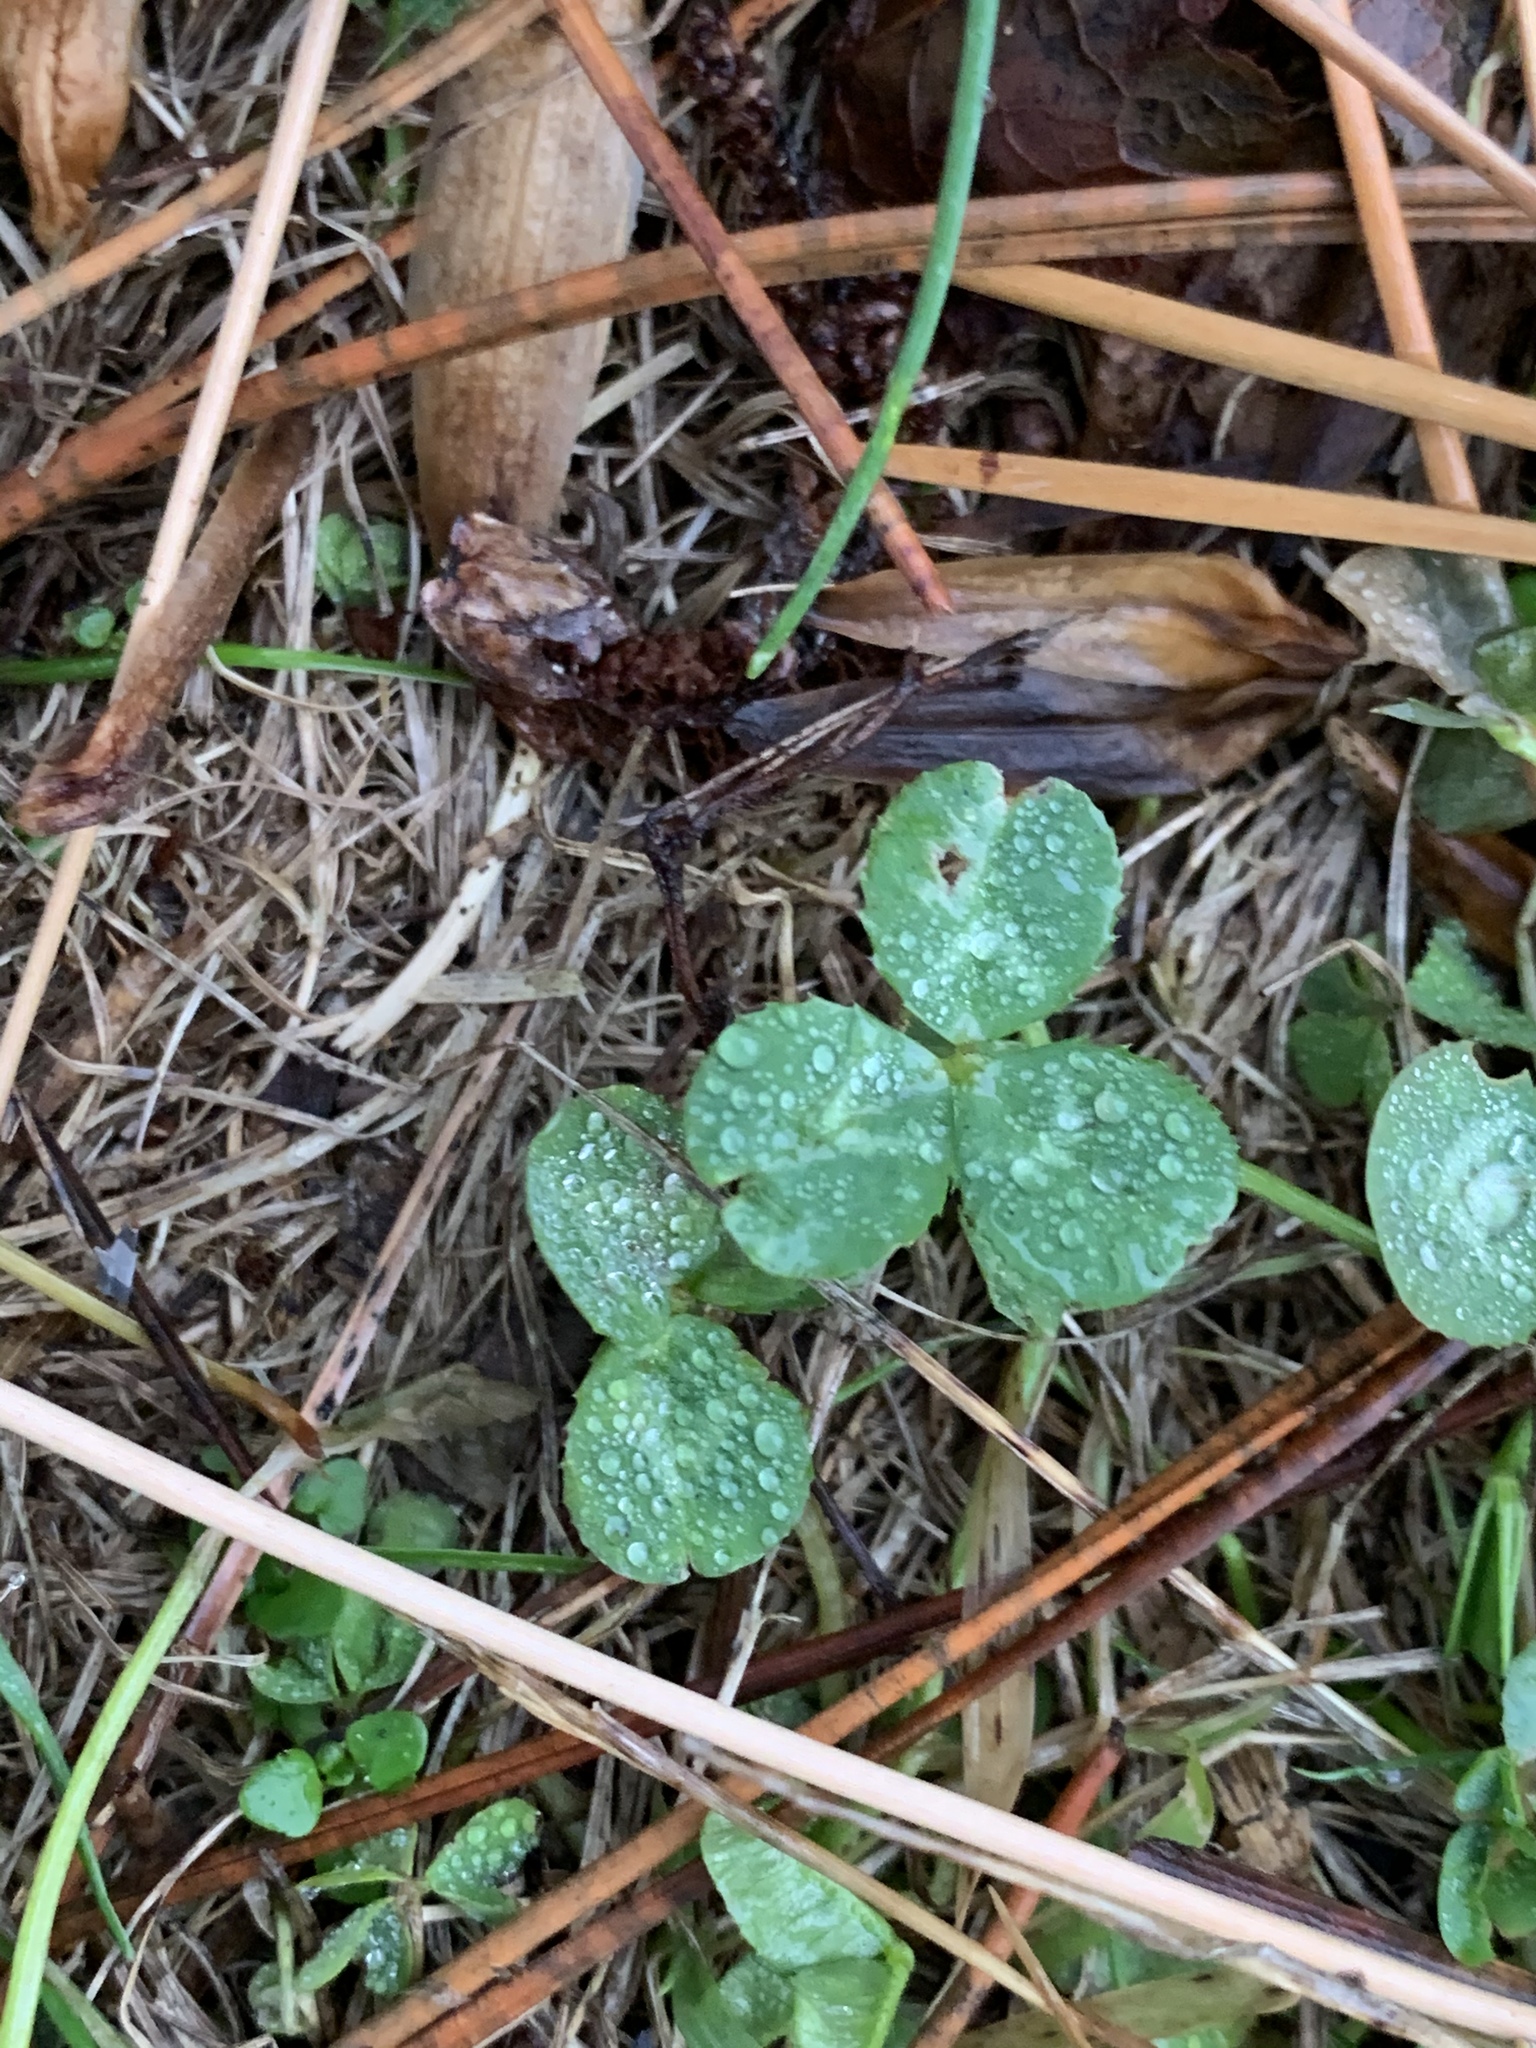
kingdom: Plantae
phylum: Tracheophyta
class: Magnoliopsida
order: Fabales
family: Fabaceae
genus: Trifolium
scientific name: Trifolium repens
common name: White clover
